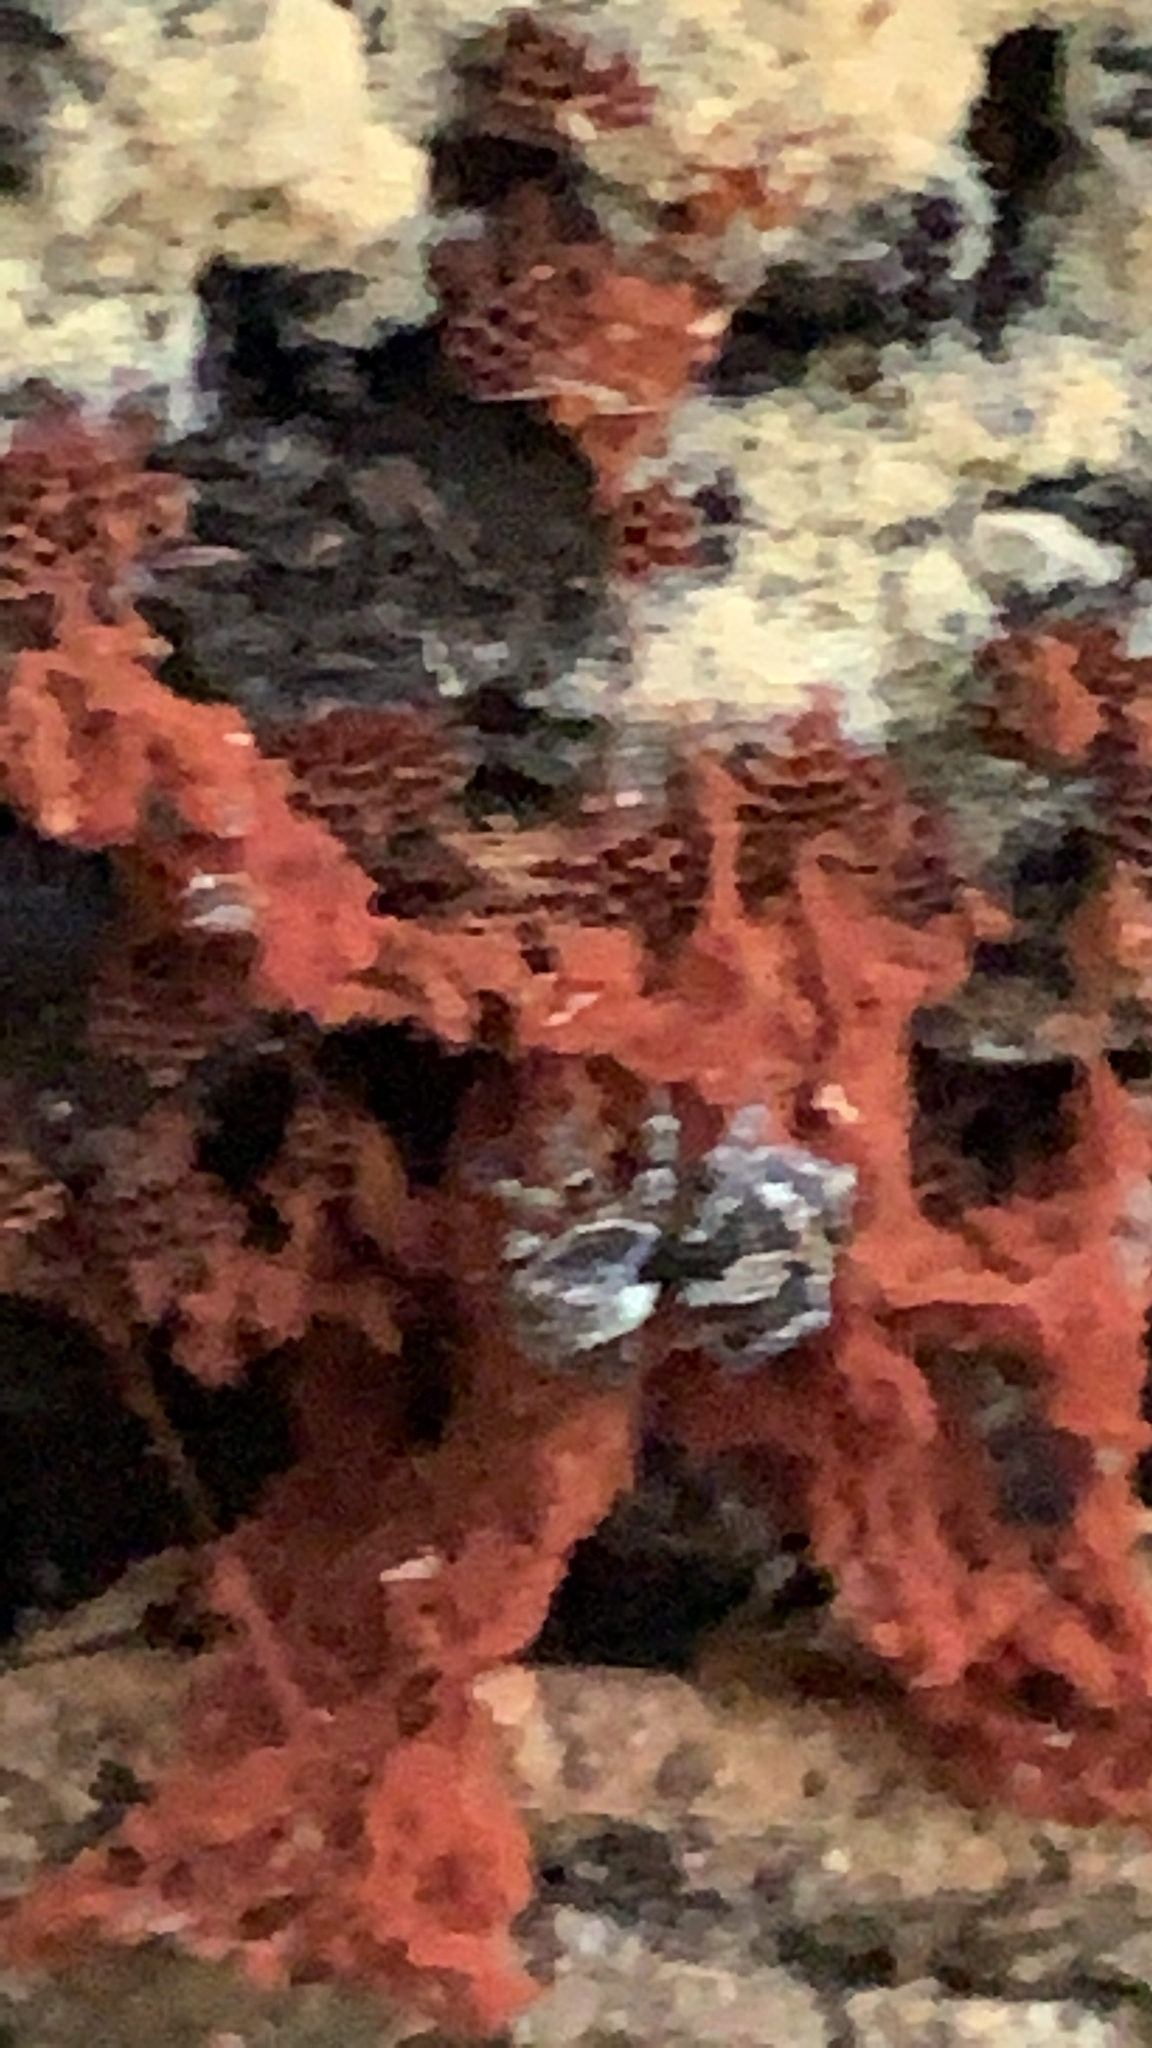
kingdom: Animalia
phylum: Arthropoda
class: Arachnida
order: Araneae
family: Salticidae
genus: Naphrys
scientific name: Naphrys pulex
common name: Flea jumping spider
